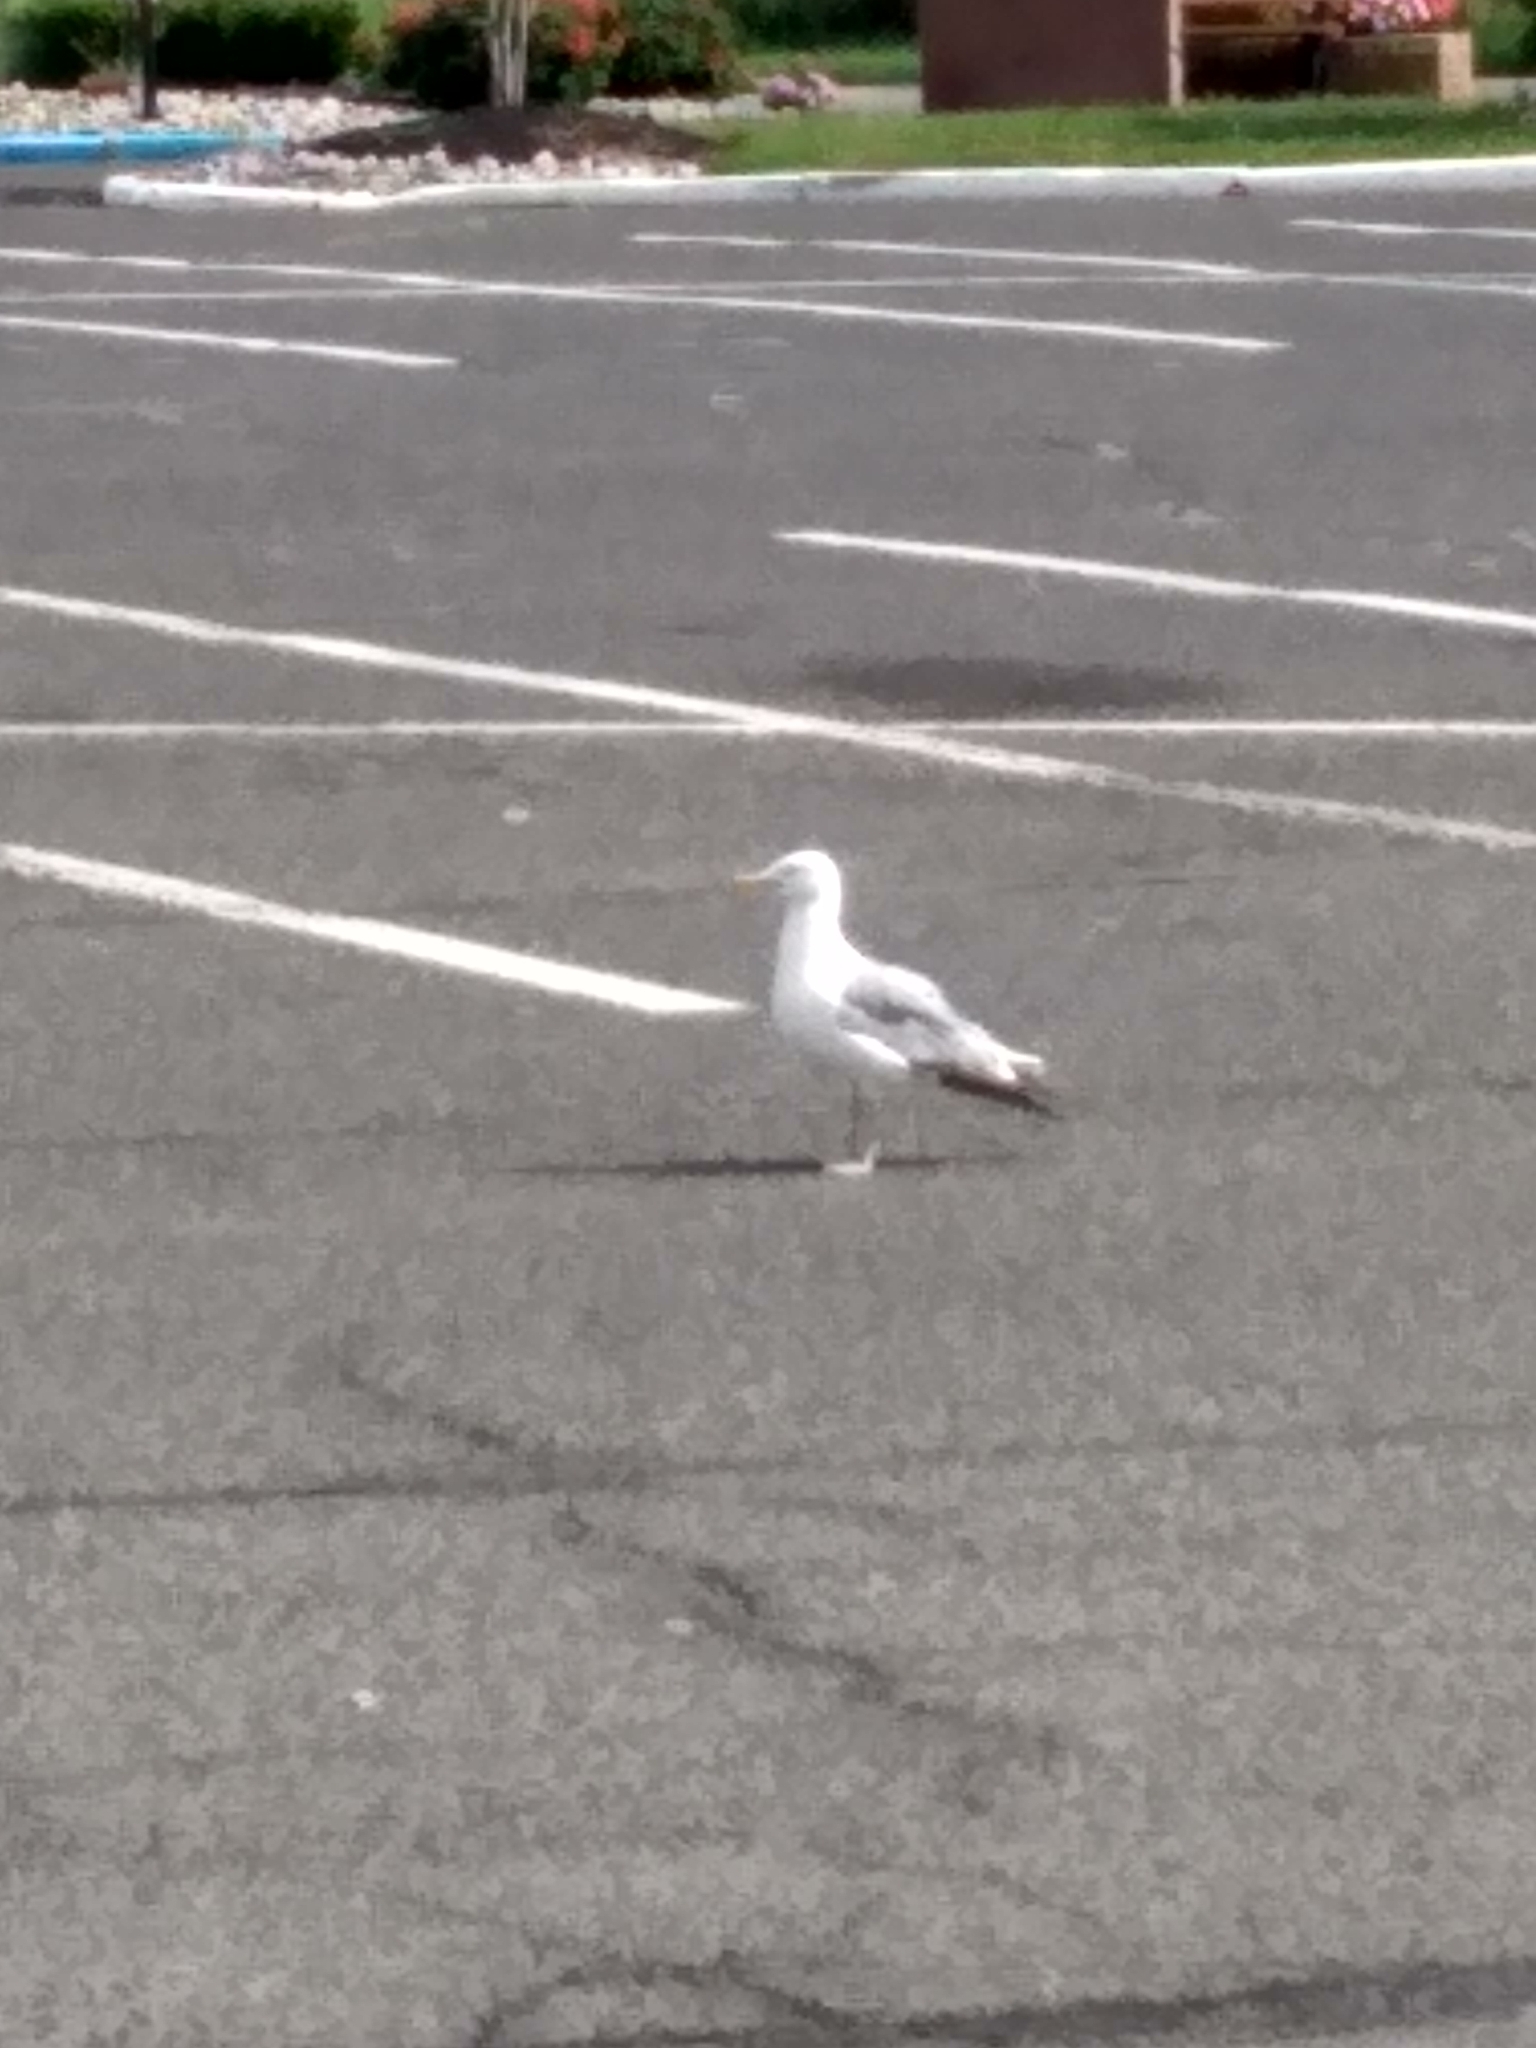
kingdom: Animalia
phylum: Chordata
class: Aves
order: Charadriiformes
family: Laridae
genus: Larus
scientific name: Larus argentatus
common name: Herring gull
